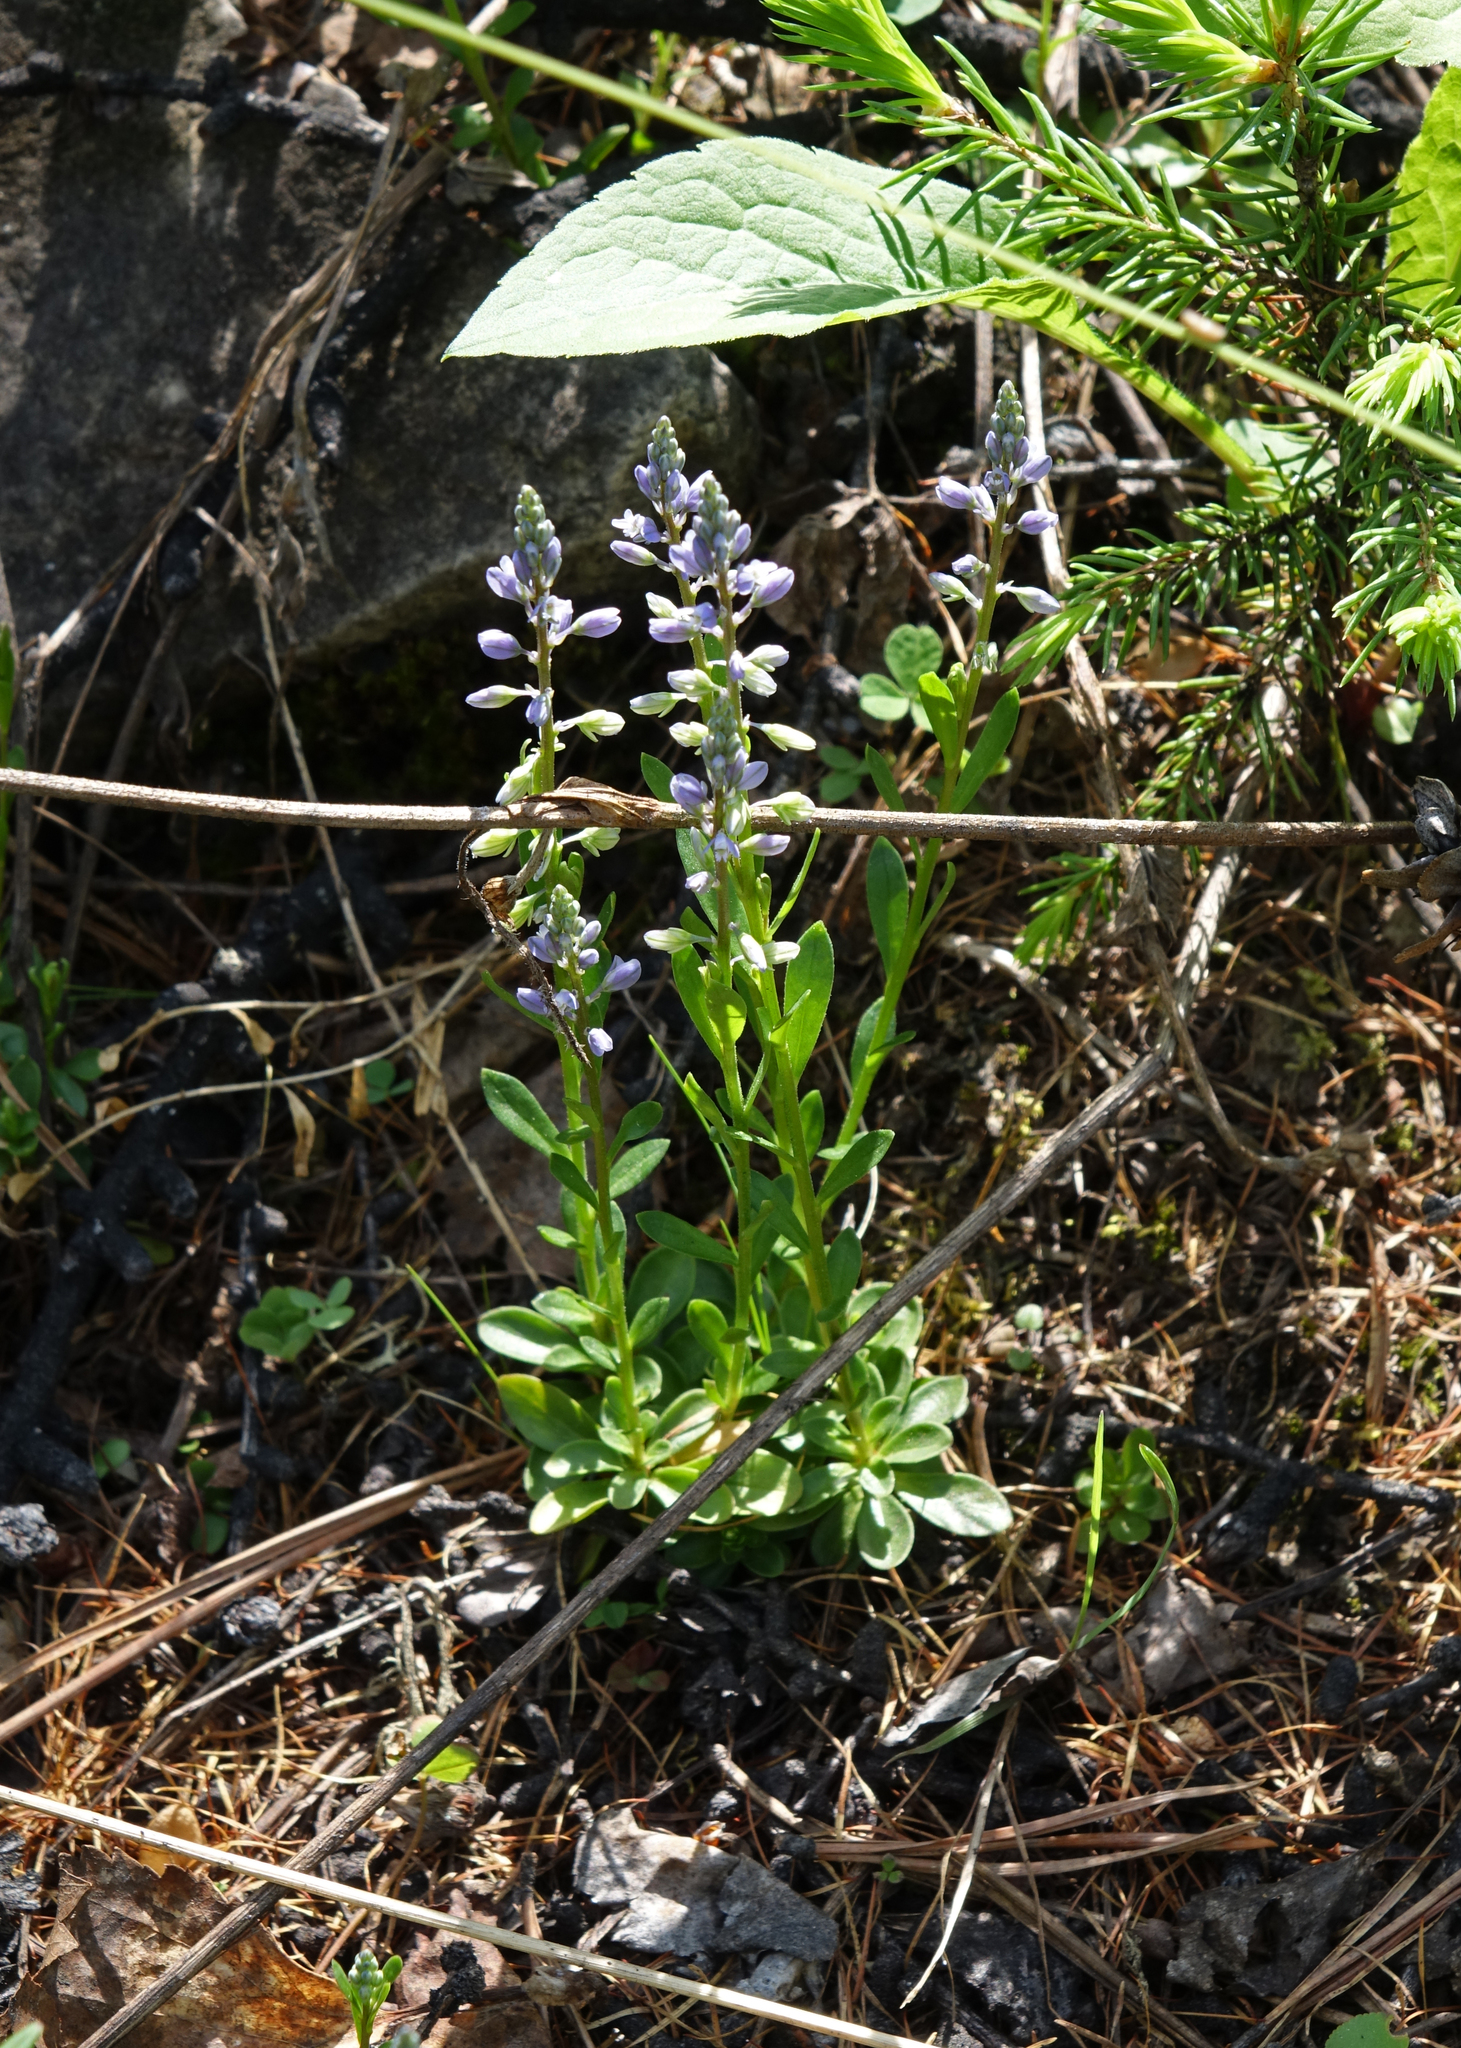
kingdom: Plantae
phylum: Tracheophyta
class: Magnoliopsida
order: Fabales
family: Polygalaceae
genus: Polygala
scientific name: Polygala amarella
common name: Dwarf milkwort
